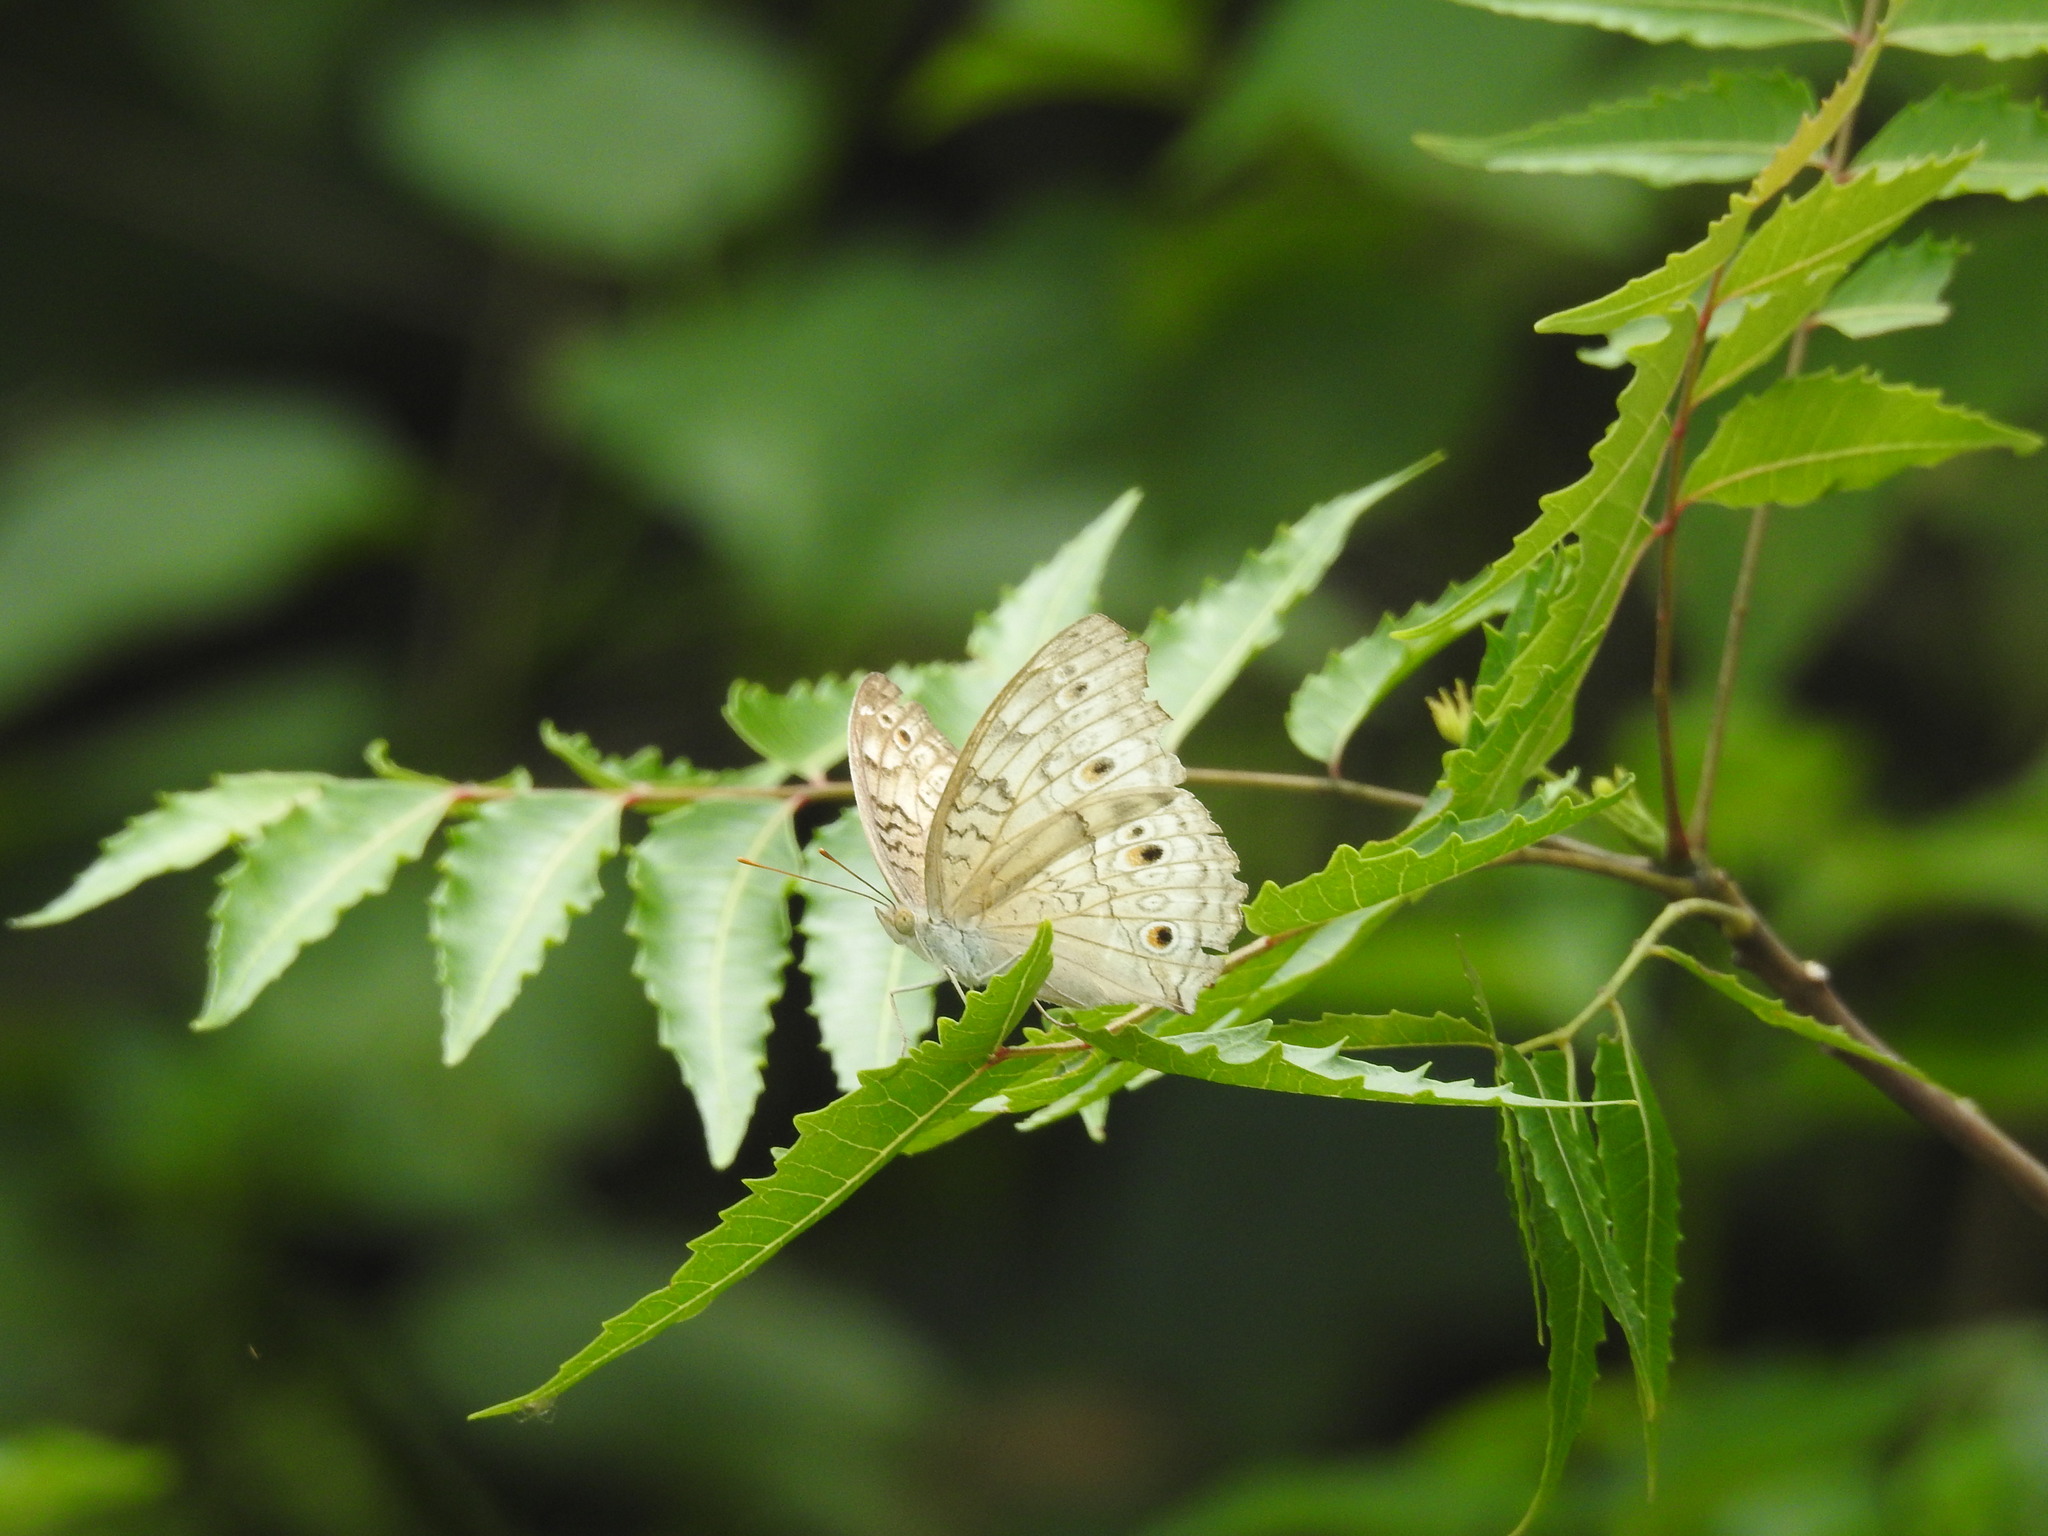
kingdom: Animalia
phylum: Arthropoda
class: Insecta
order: Lepidoptera
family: Nymphalidae
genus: Junonia
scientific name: Junonia atlites
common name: Grey pansy
